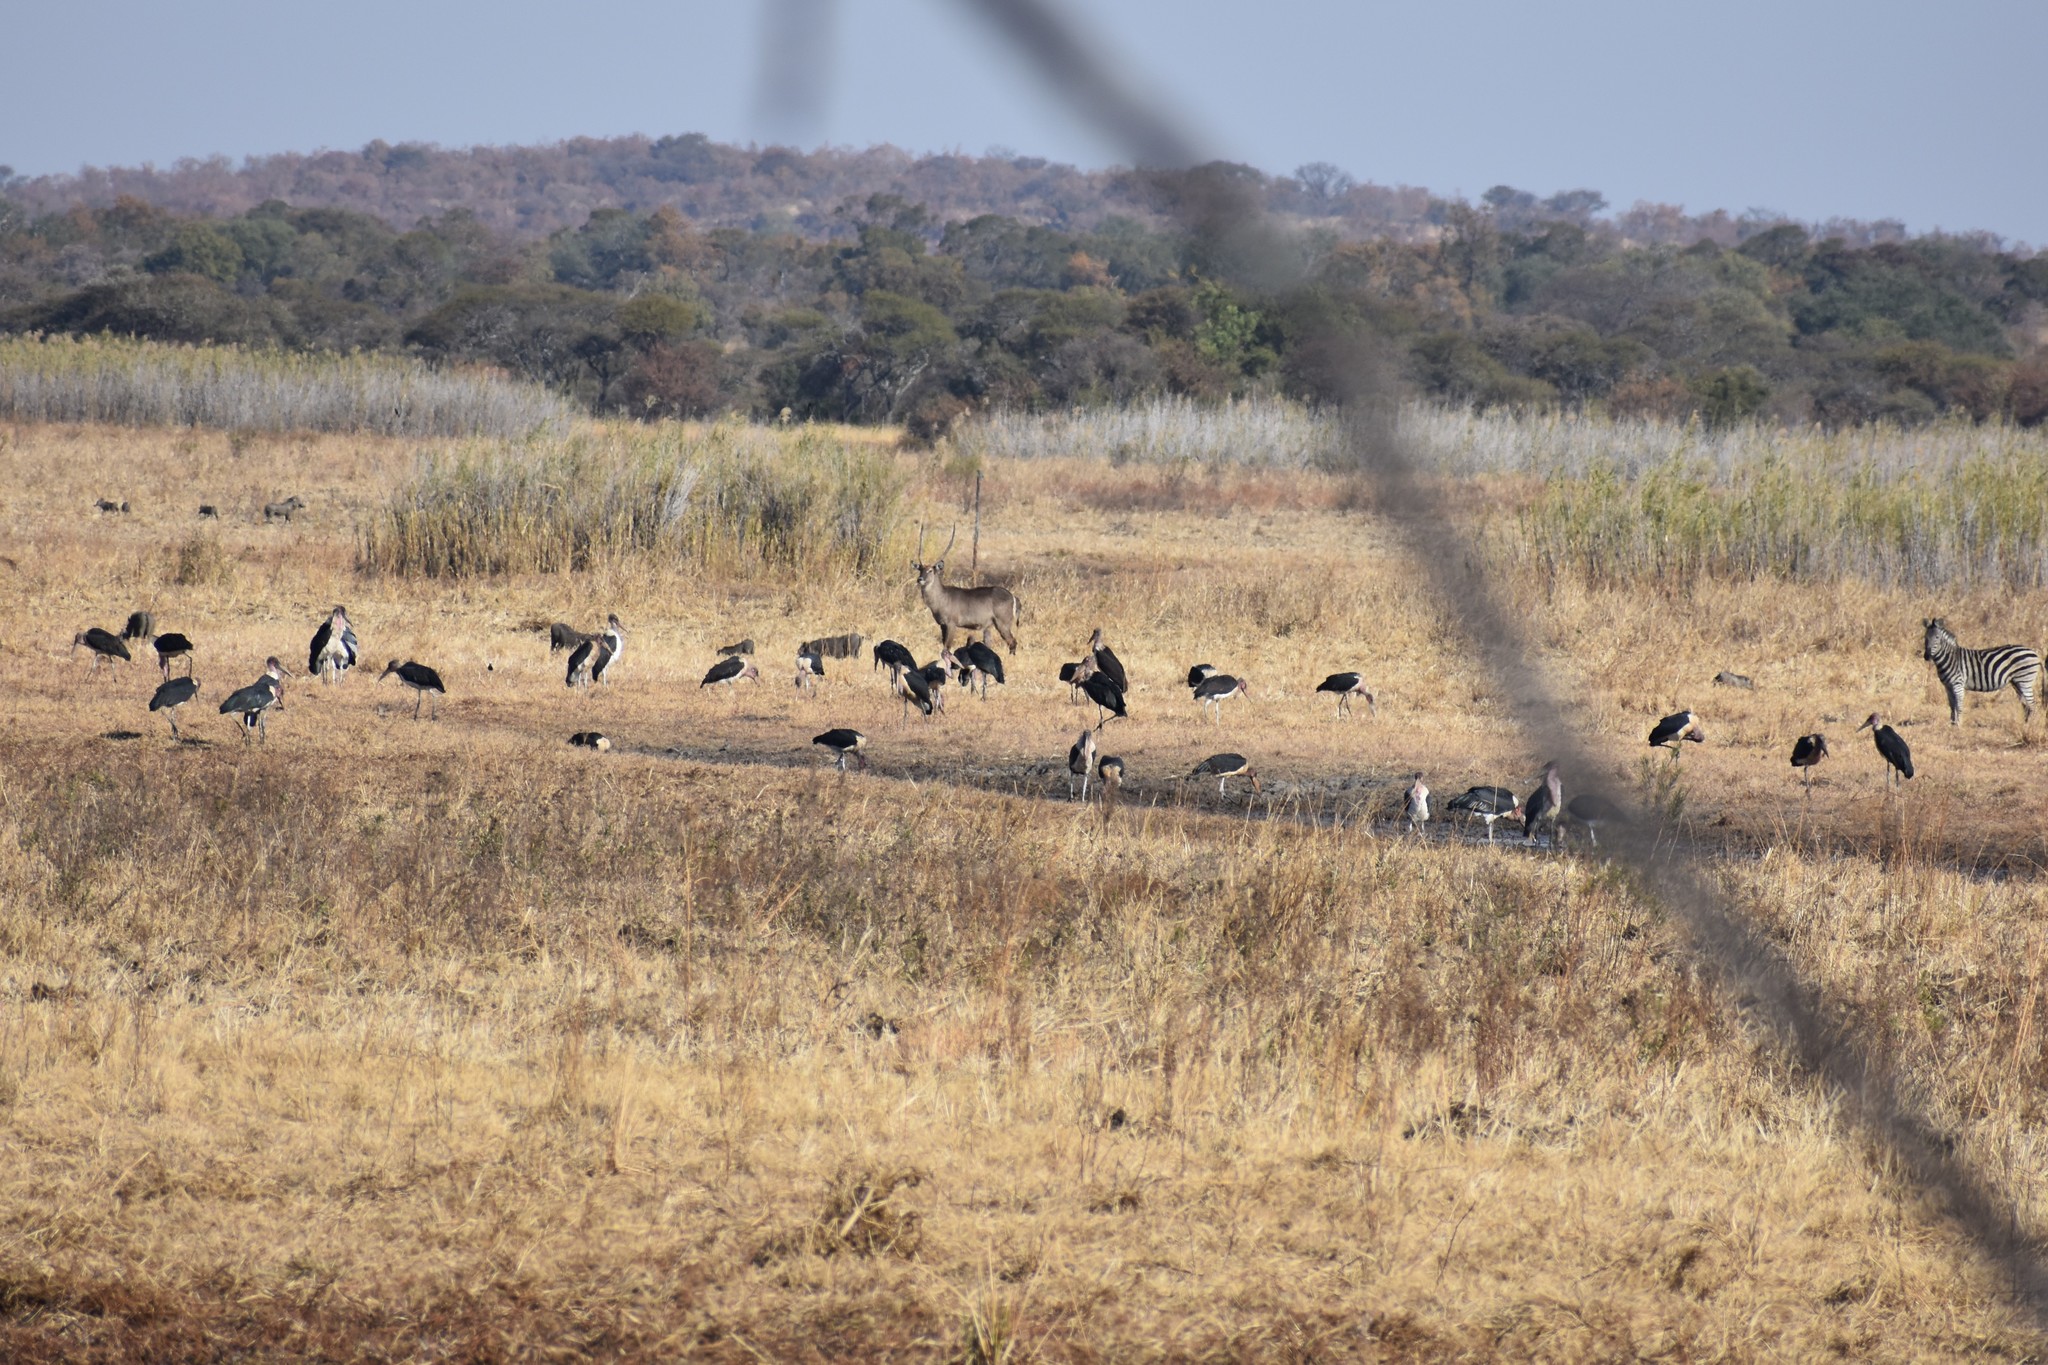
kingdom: Animalia
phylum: Chordata
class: Aves
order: Ciconiiformes
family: Ciconiidae
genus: Leptoptilos
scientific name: Leptoptilos crumenifer
